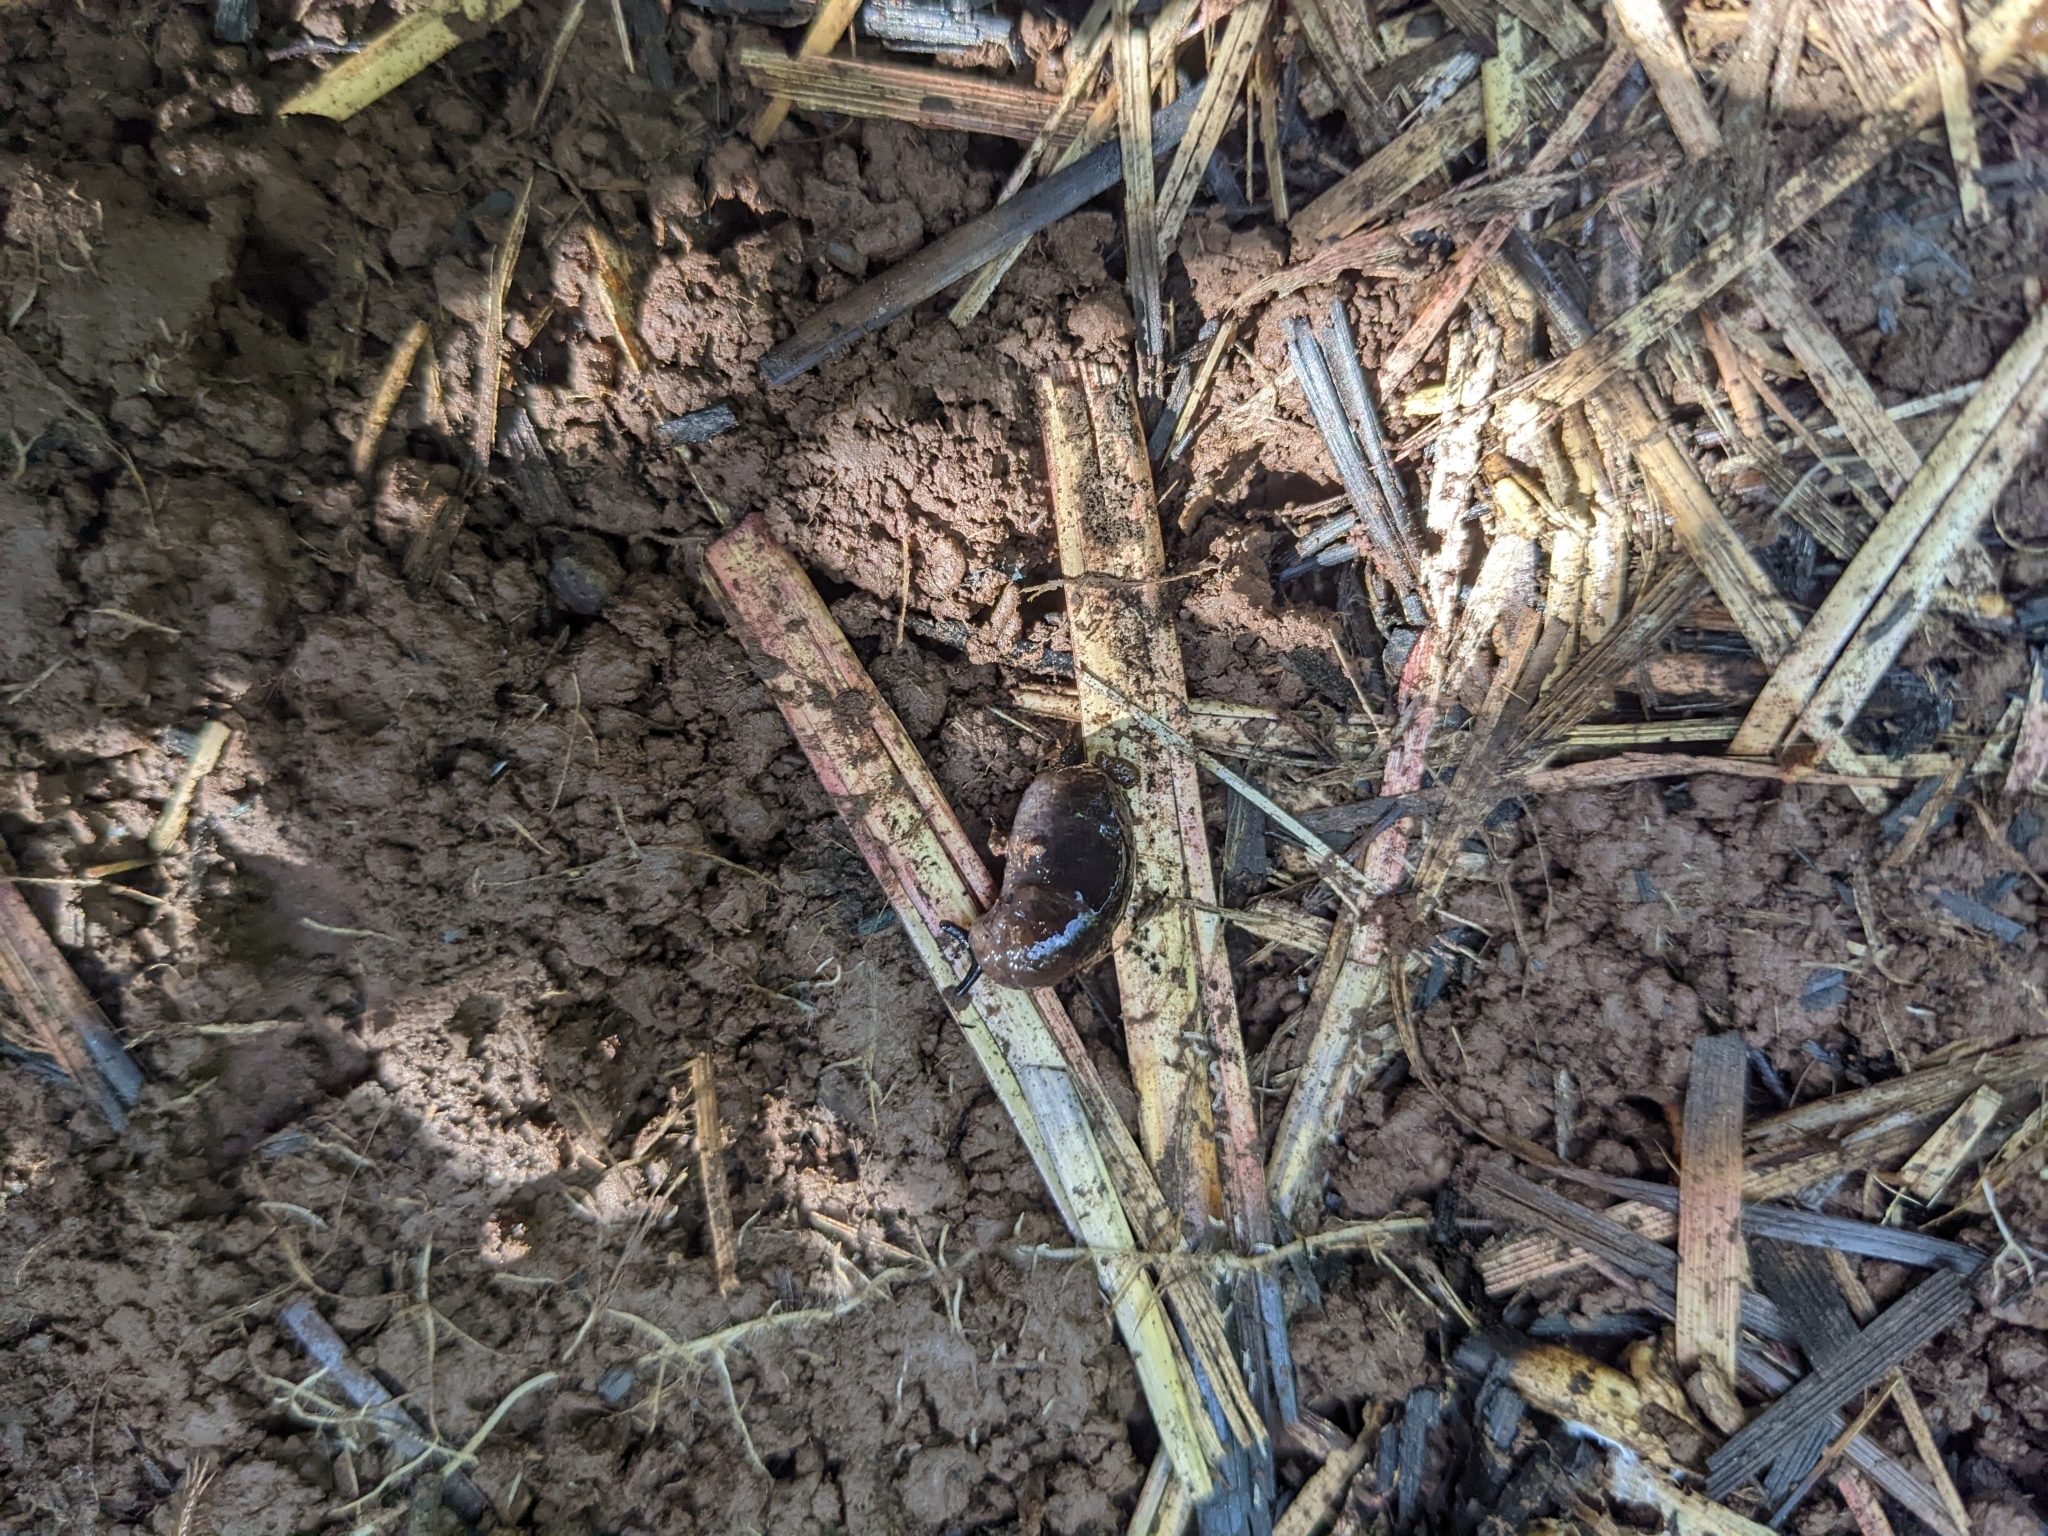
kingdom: Animalia
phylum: Mollusca
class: Gastropoda
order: Stylommatophora
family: Milacidae
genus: Milax
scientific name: Milax gagates
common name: Greenhouse slug
